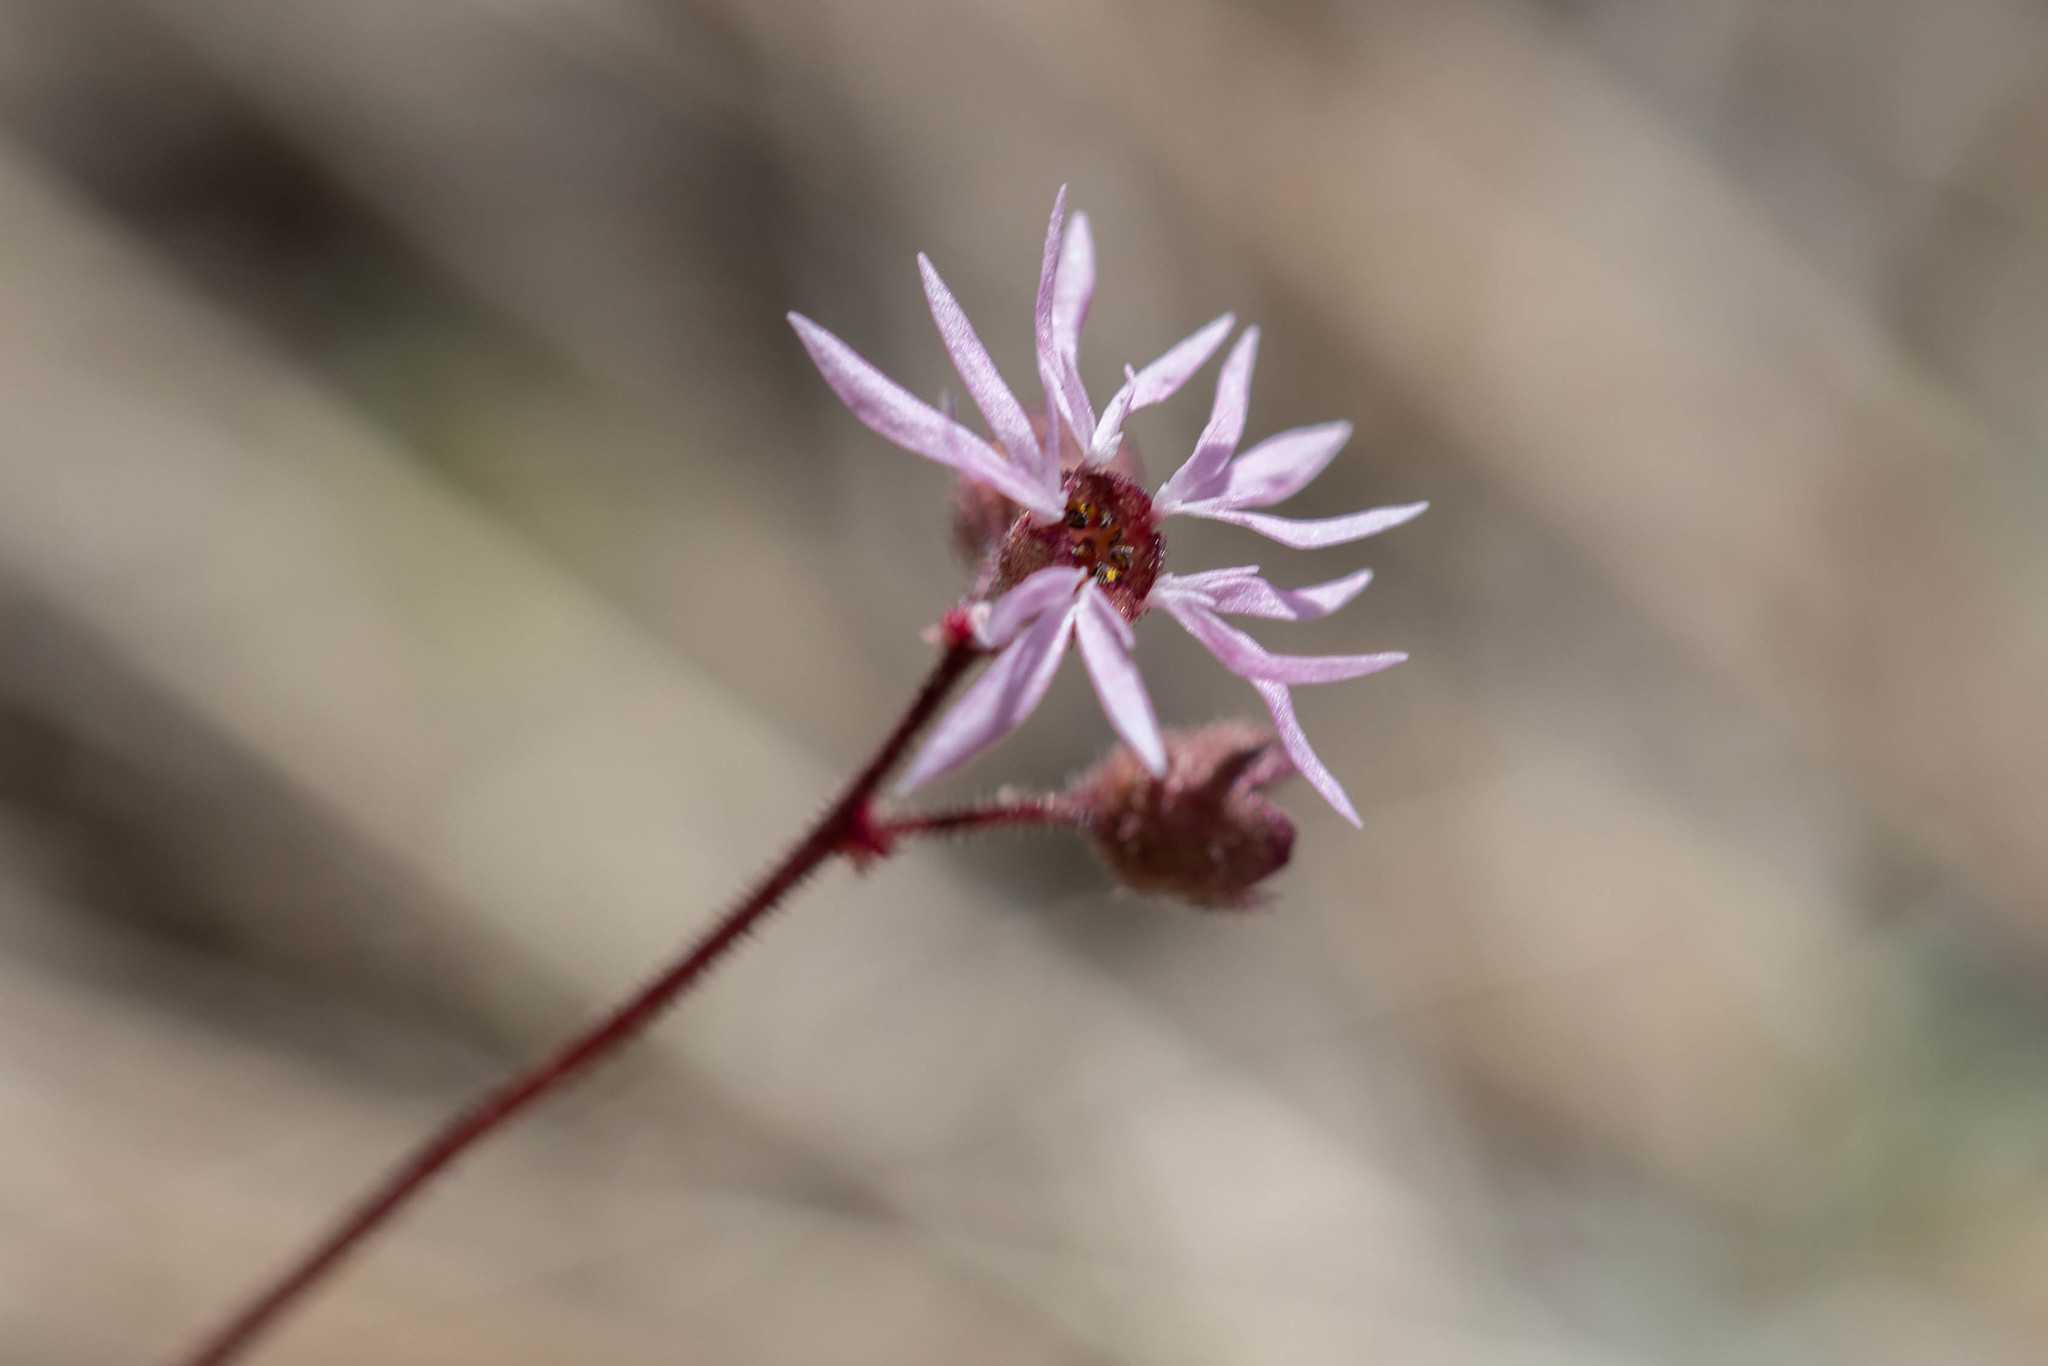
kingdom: Plantae
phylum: Tracheophyta
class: Magnoliopsida
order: Saxifragales
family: Saxifragaceae
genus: Lithophragma
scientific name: Lithophragma glabrum
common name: Bulbous prairie-star
